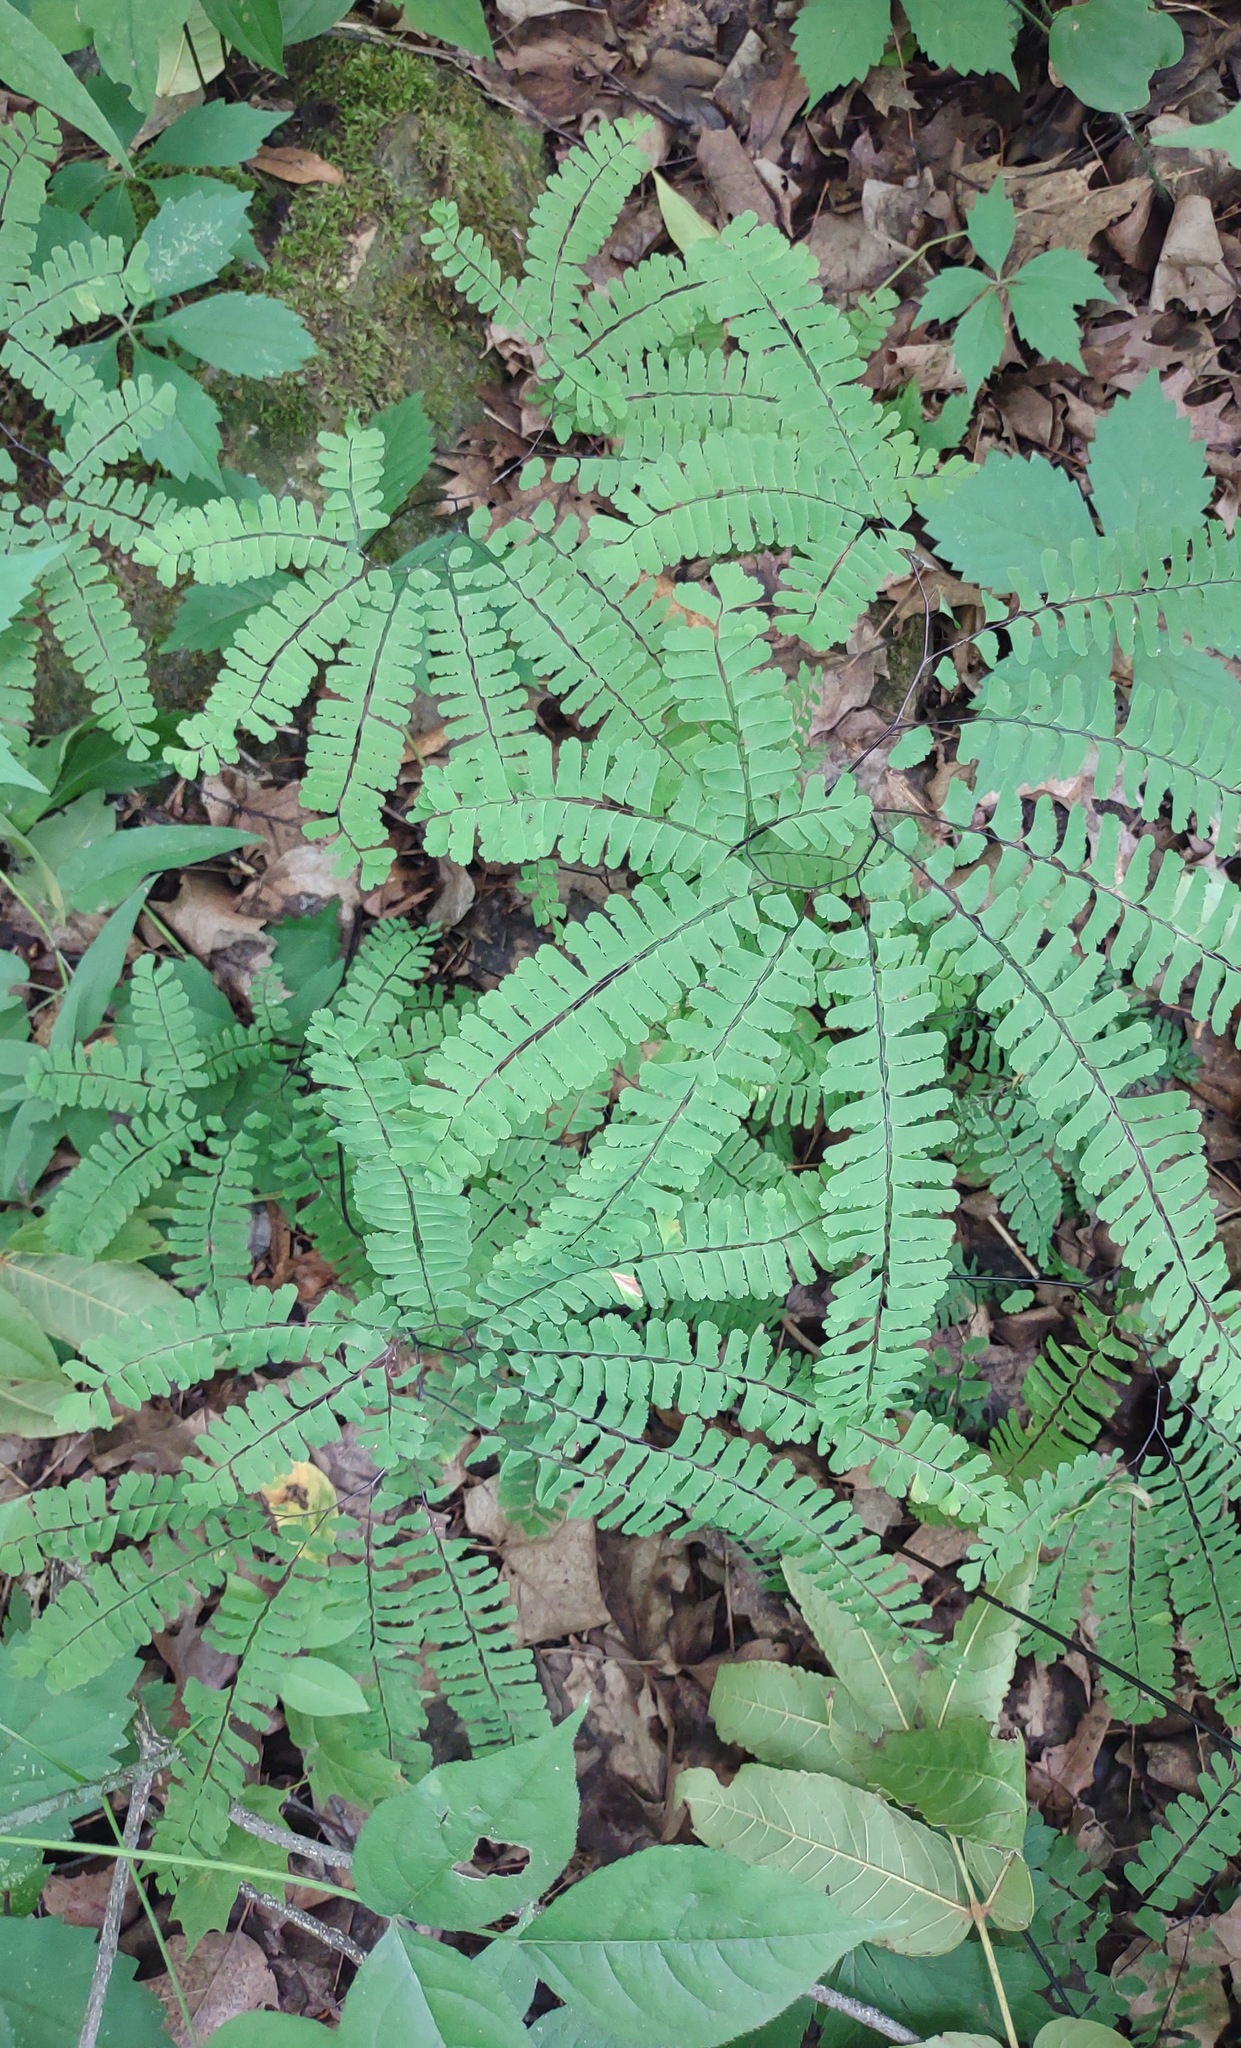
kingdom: Plantae
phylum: Tracheophyta
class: Polypodiopsida
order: Polypodiales
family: Pteridaceae
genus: Adiantum
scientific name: Adiantum pedatum
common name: Five-finger fern
